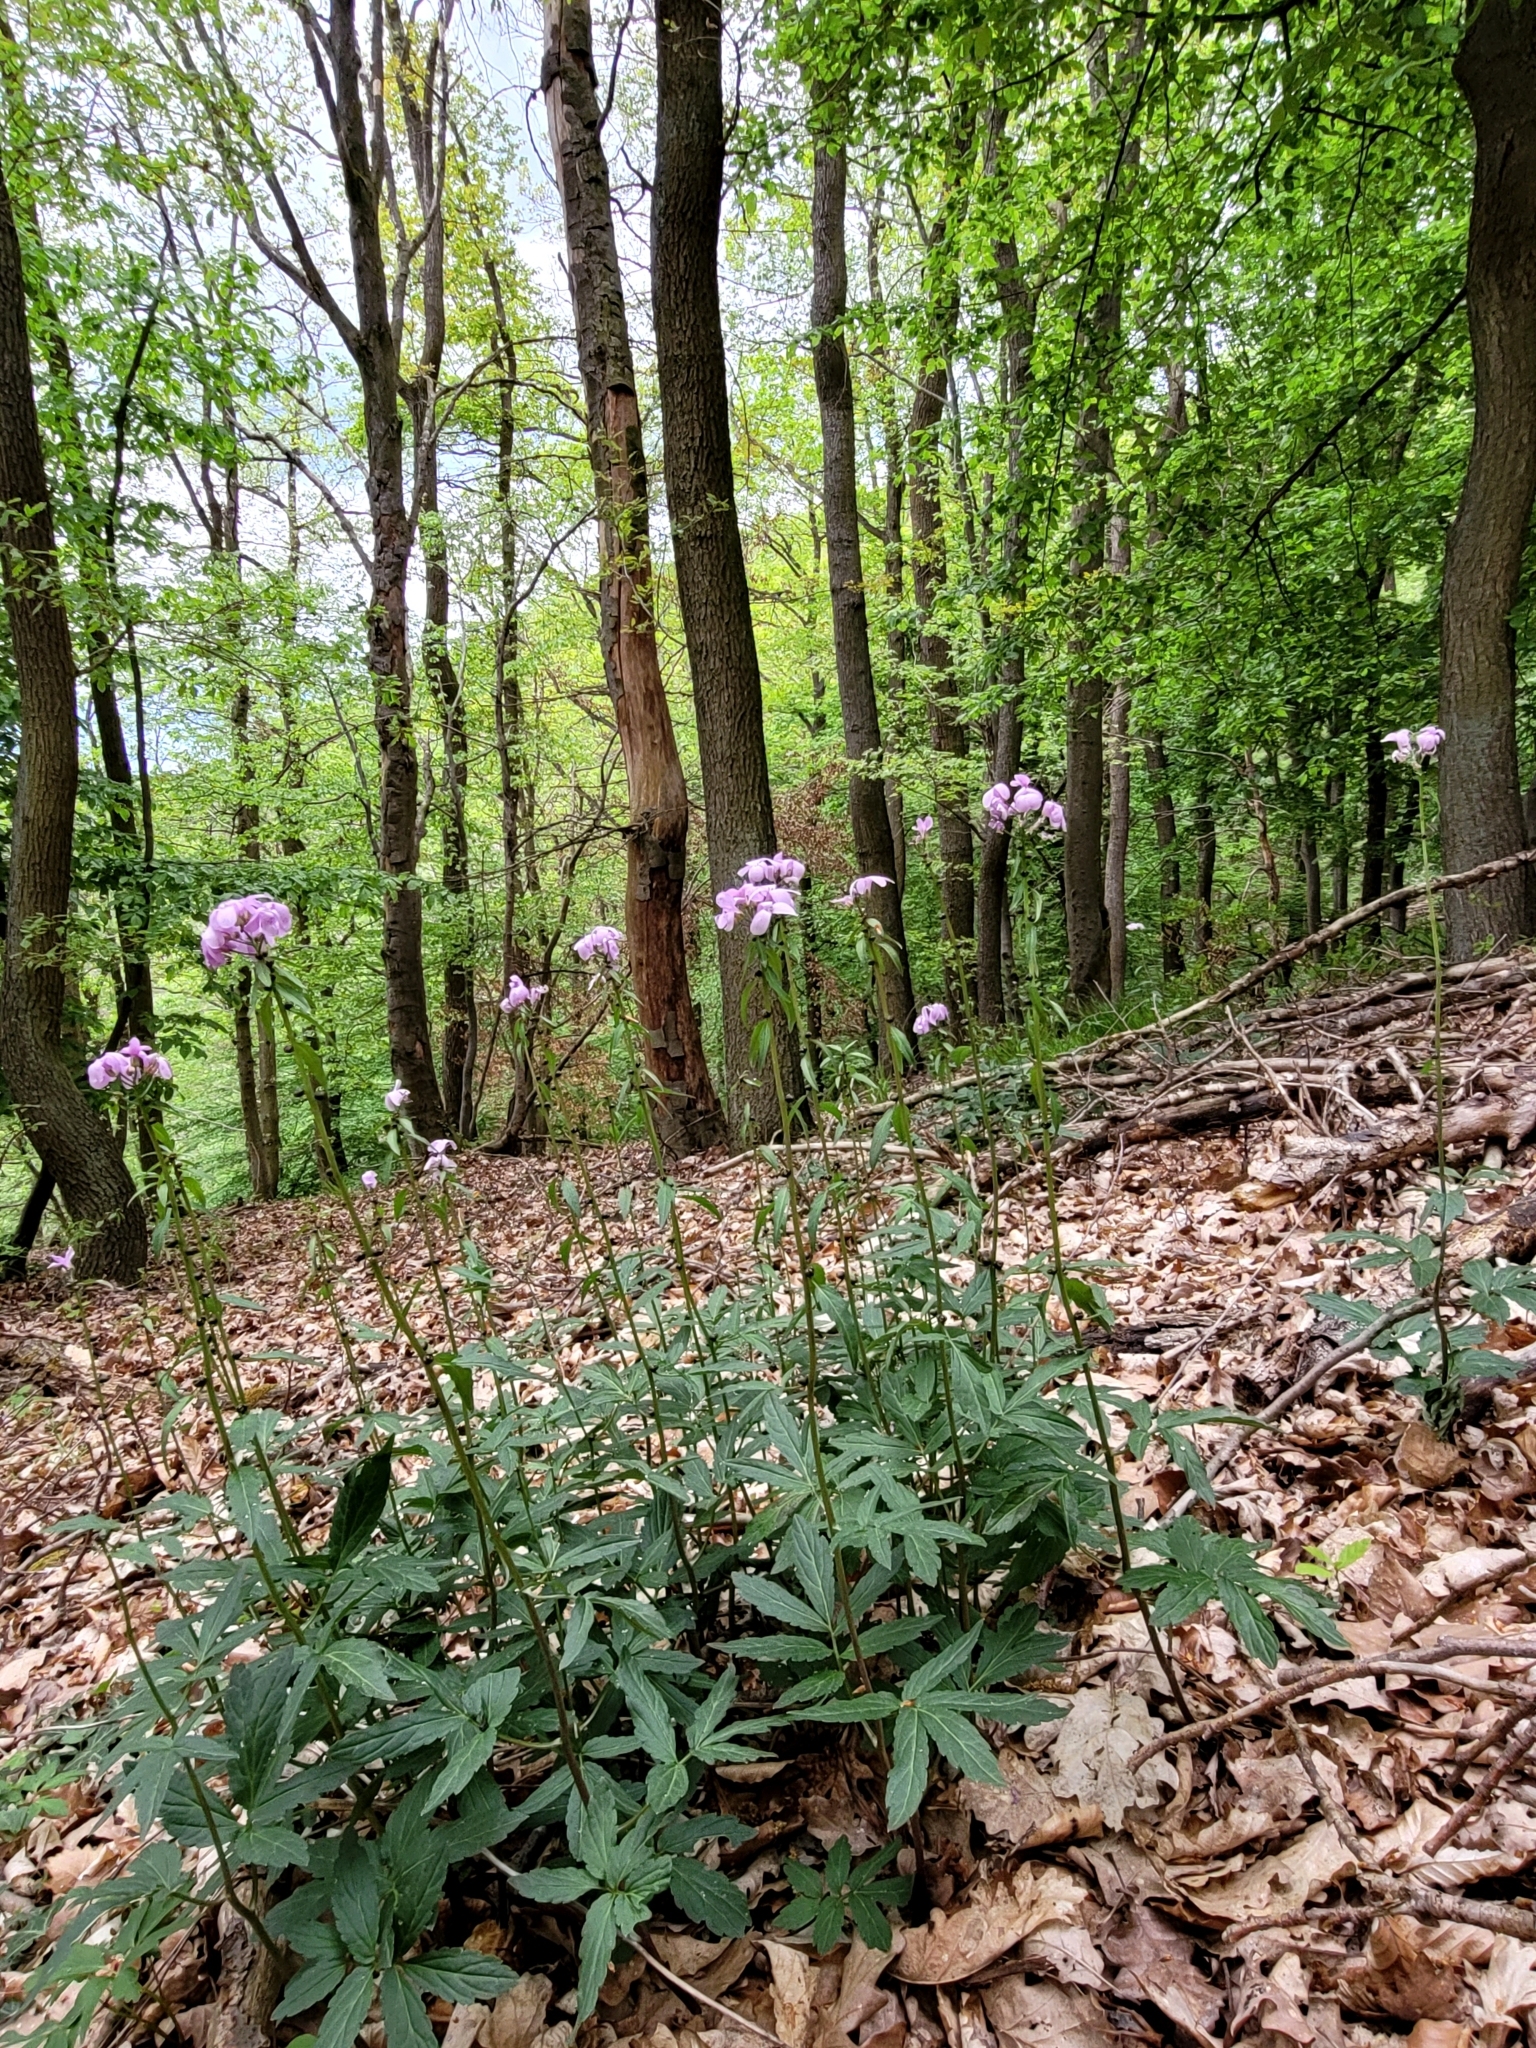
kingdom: Plantae
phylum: Tracheophyta
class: Magnoliopsida
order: Brassicales
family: Brassicaceae
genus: Cardamine
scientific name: Cardamine bulbifera
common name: Coralroot bittercress
